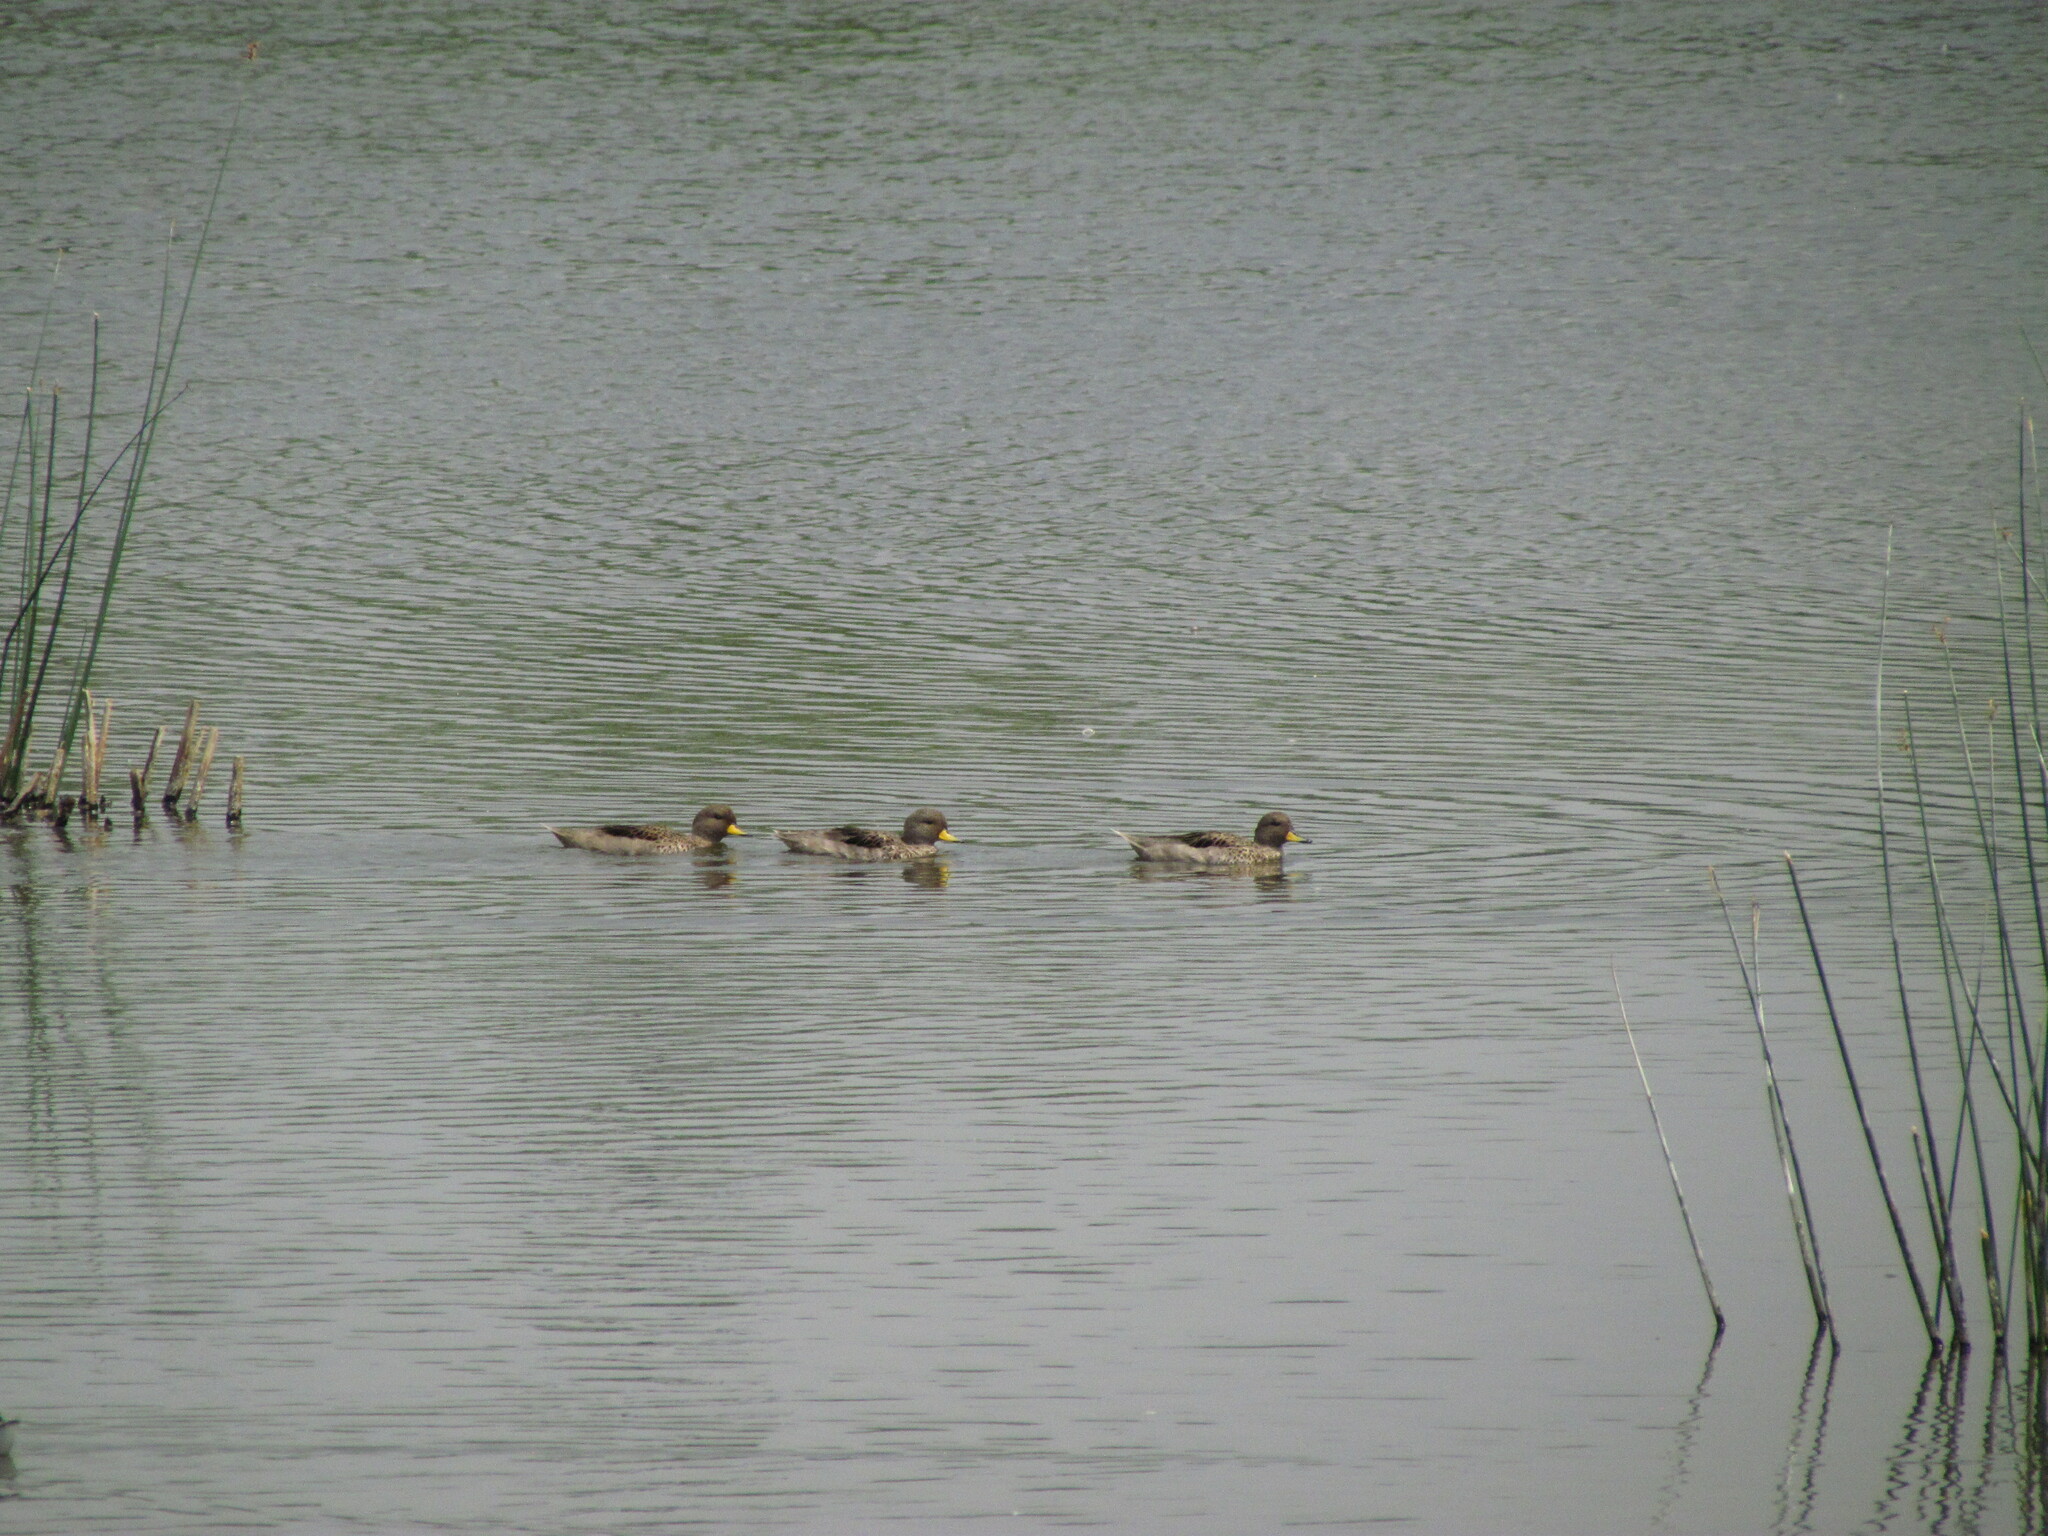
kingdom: Animalia
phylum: Chordata
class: Aves
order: Anseriformes
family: Anatidae
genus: Anas
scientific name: Anas flavirostris
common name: Yellow-billed teal
